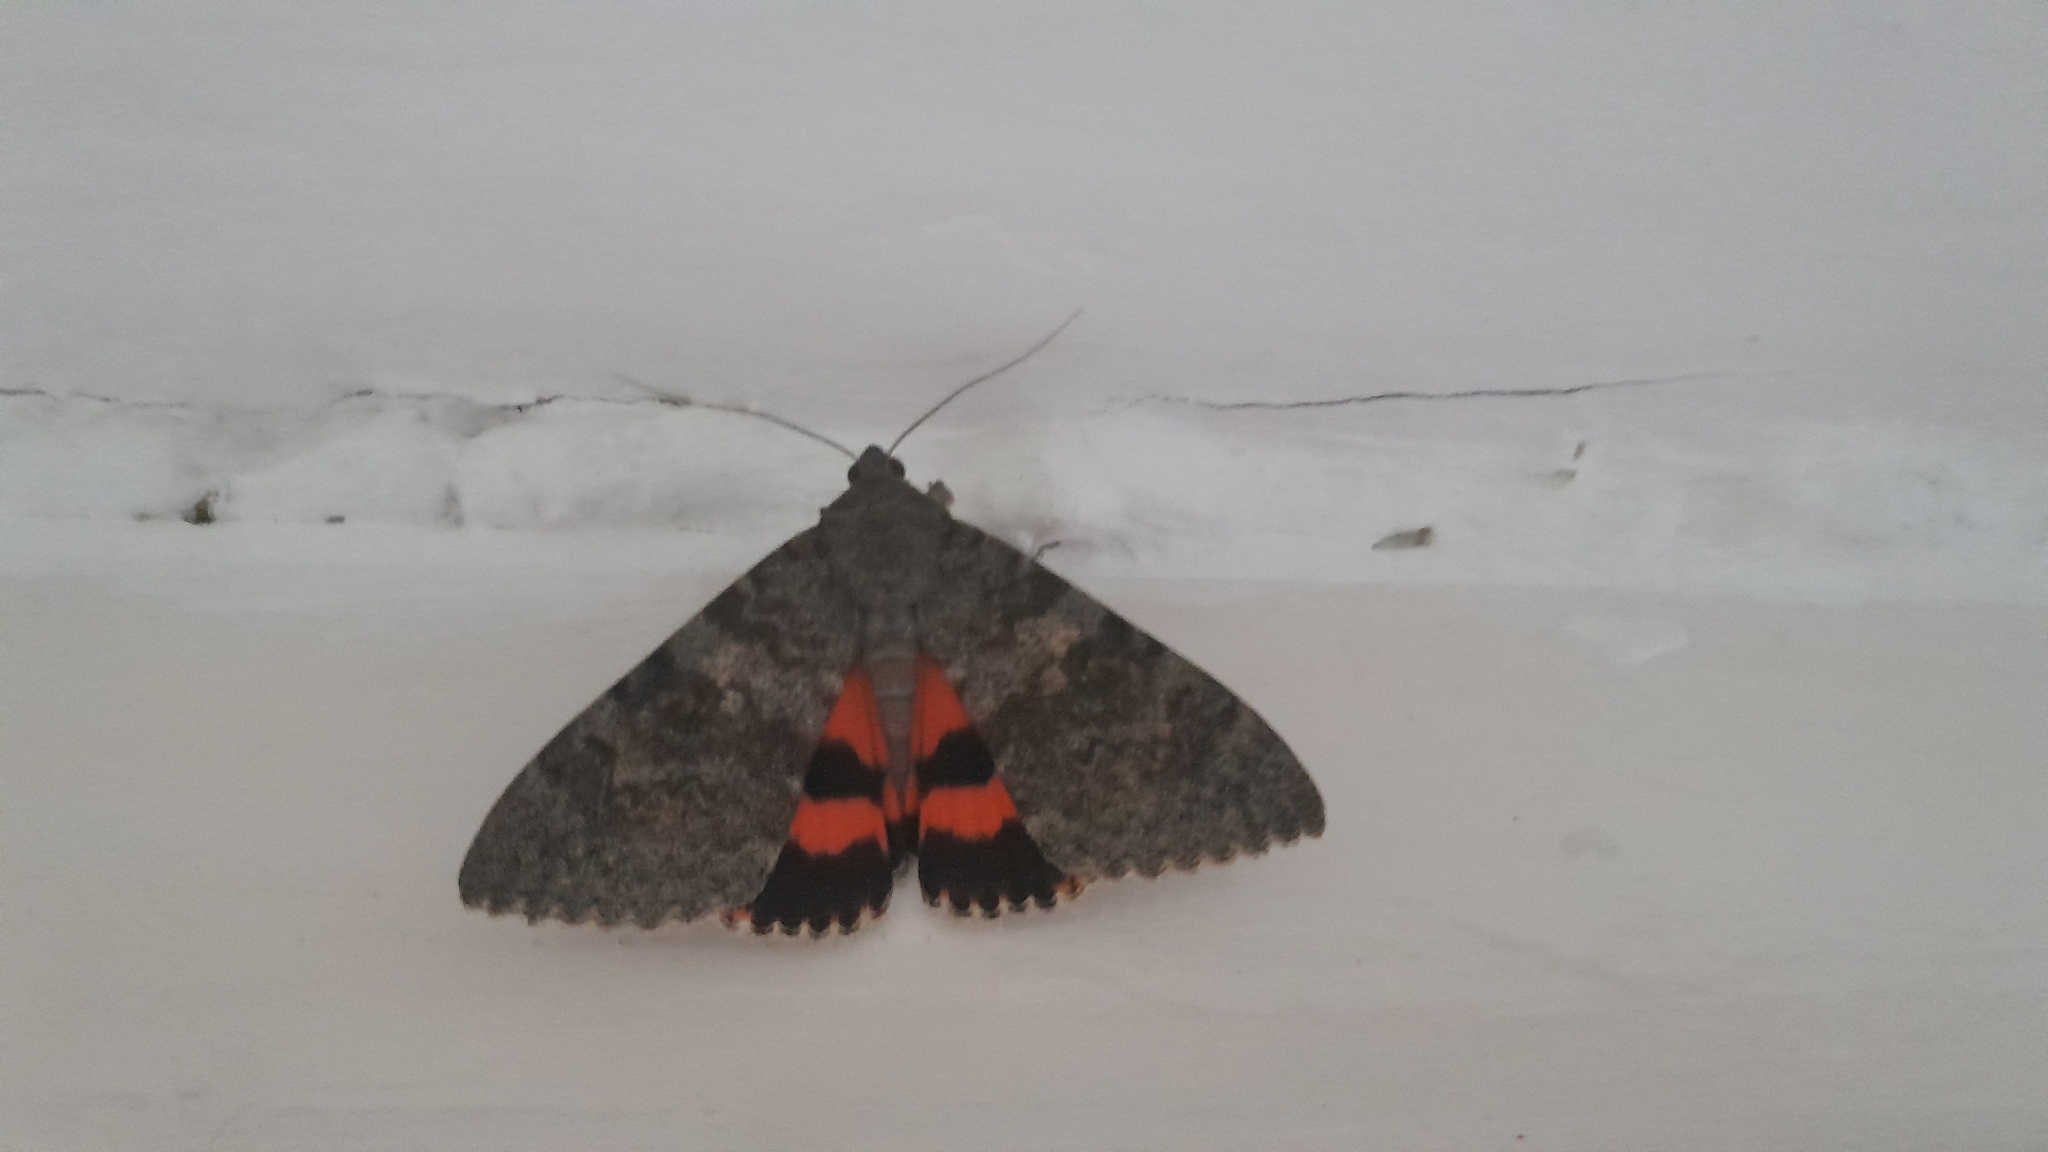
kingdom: Animalia
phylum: Arthropoda
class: Insecta
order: Lepidoptera
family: Erebidae
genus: Catocala
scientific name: Catocala elocata
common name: French red underwing
